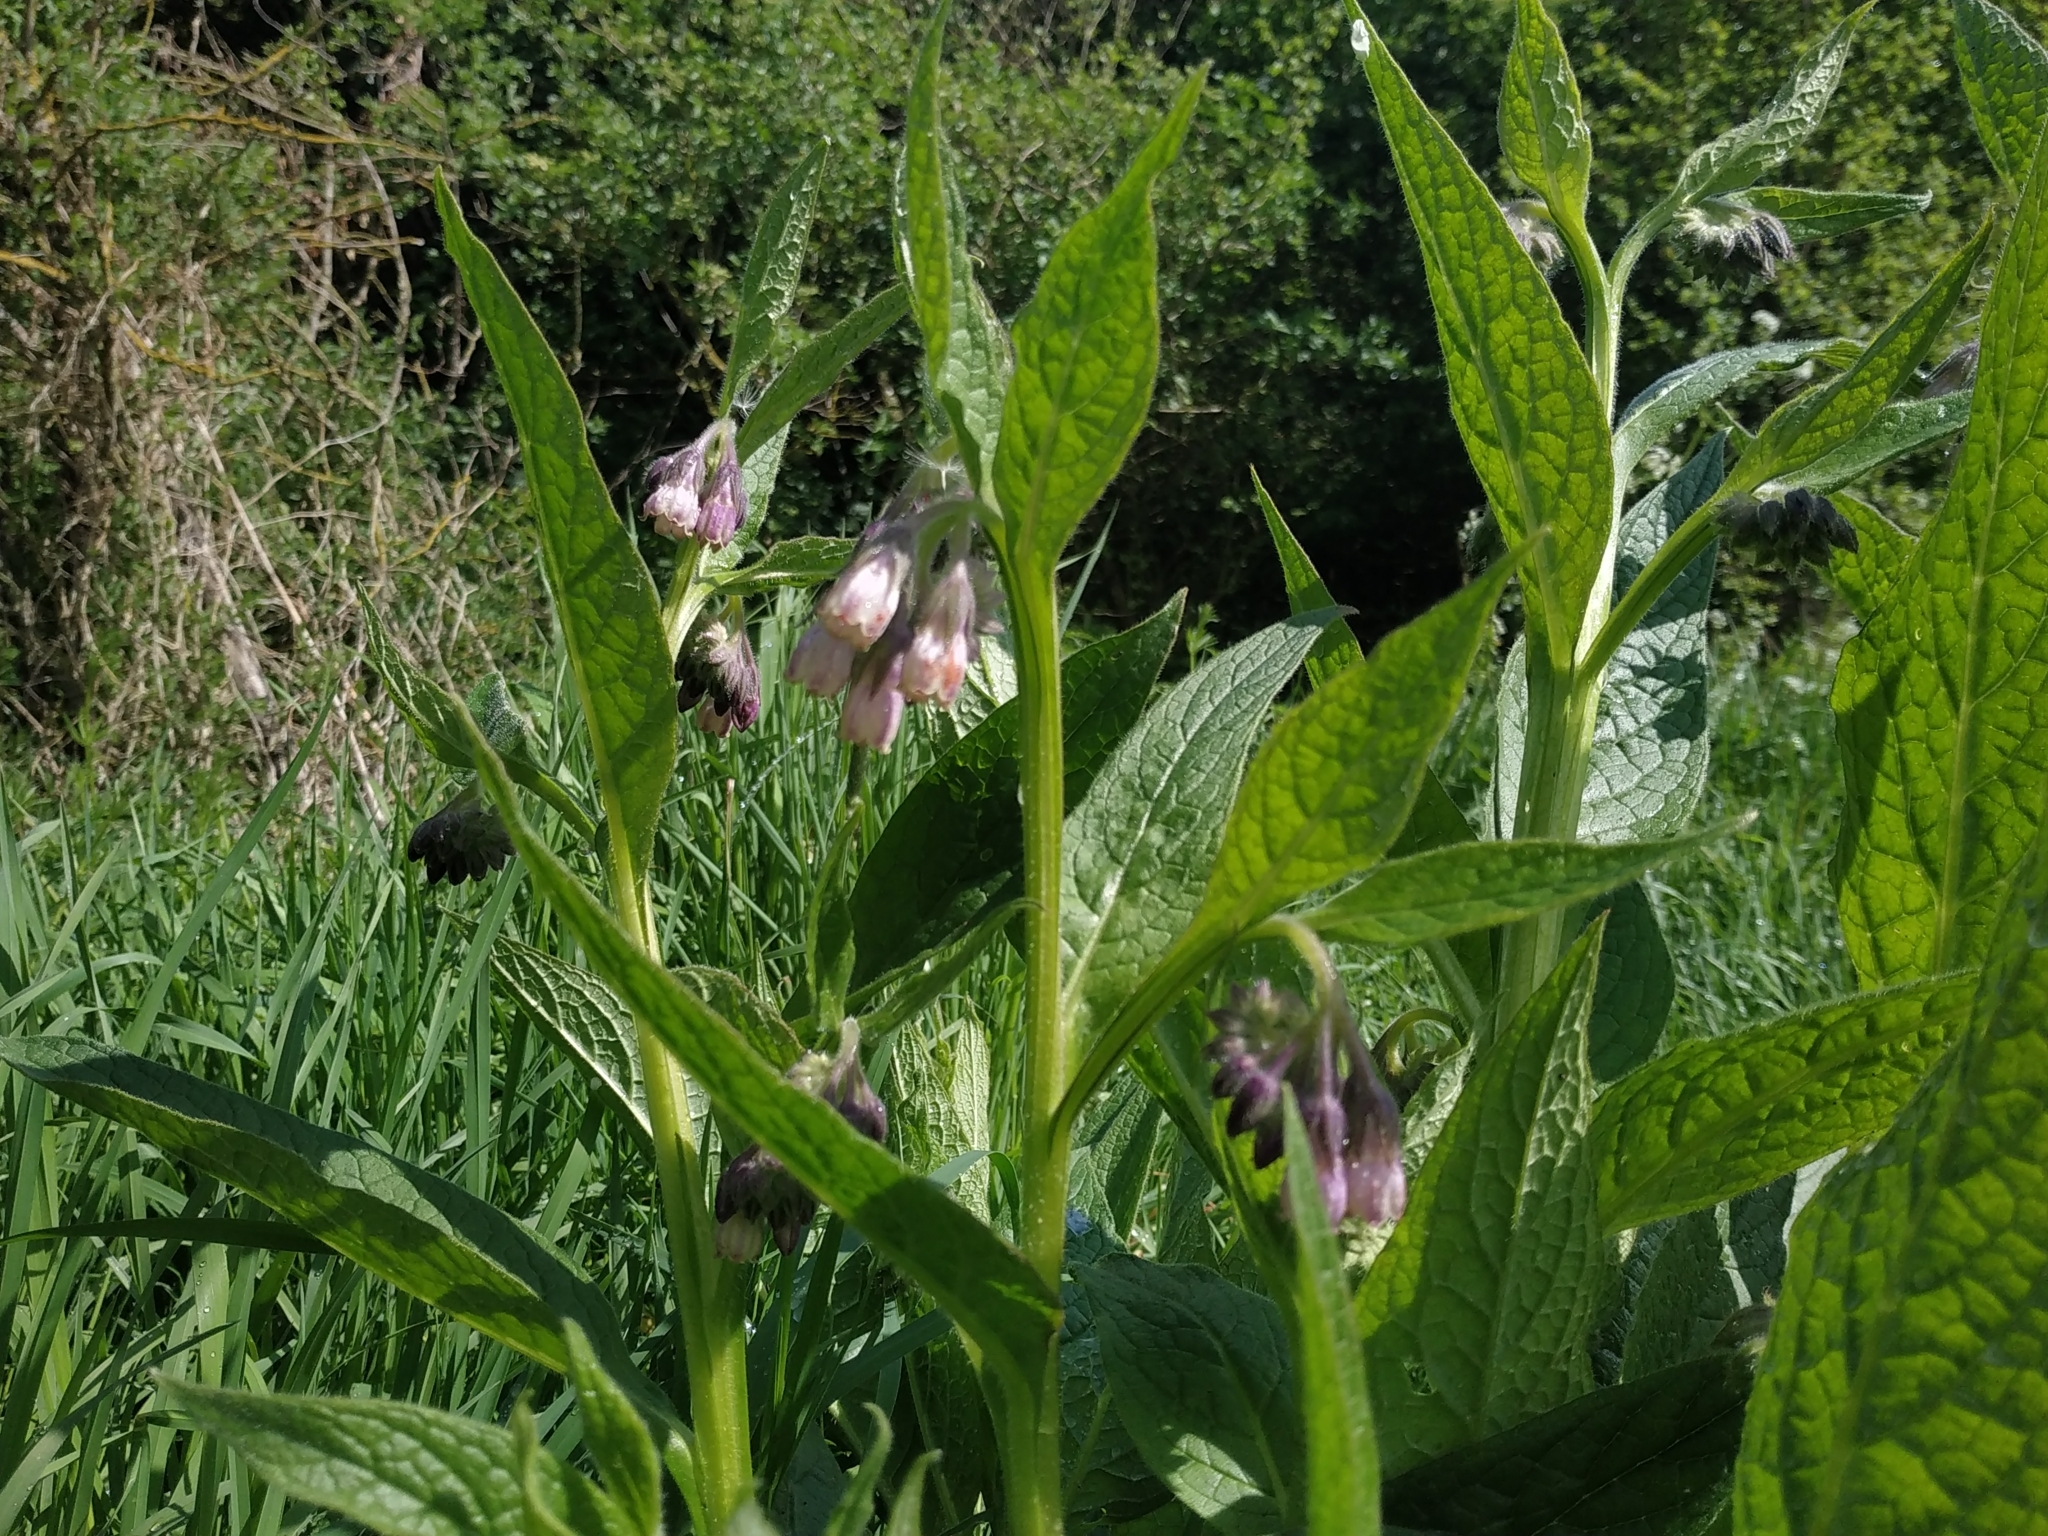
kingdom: Plantae
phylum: Tracheophyta
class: Magnoliopsida
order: Boraginales
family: Boraginaceae
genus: Symphytum
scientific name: Symphytum officinale
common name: Common comfrey
